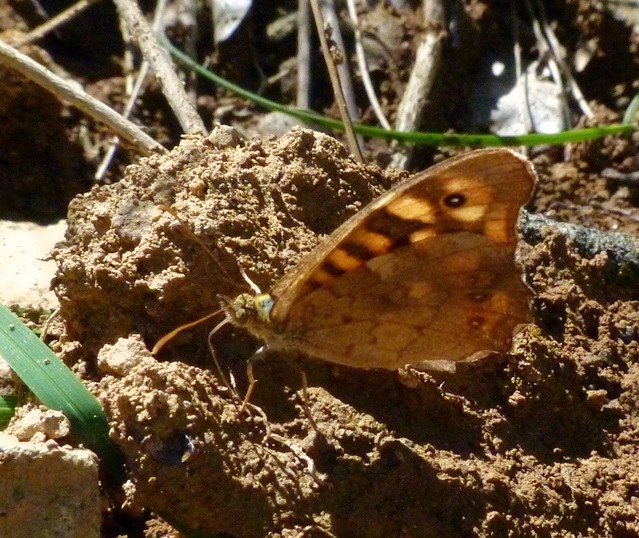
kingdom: Animalia
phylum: Arthropoda
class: Insecta
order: Lepidoptera
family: Nymphalidae
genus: Pararge
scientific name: Pararge aegeria
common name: Speckled wood
